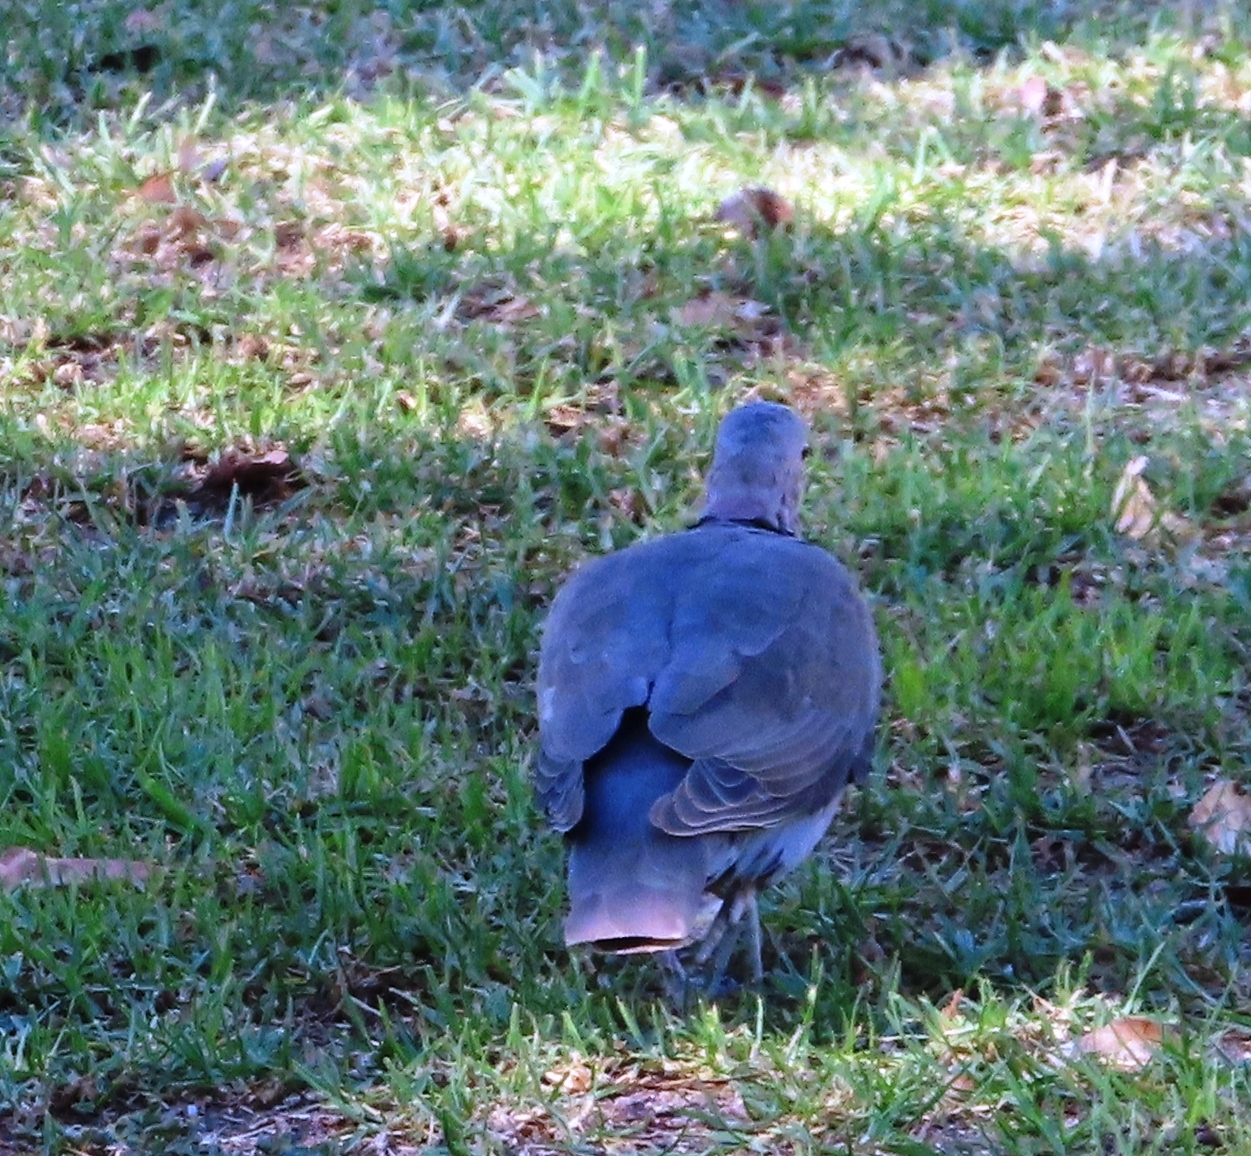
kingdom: Animalia
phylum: Chordata
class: Aves
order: Columbiformes
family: Columbidae
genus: Streptopelia
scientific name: Streptopelia semitorquata
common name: Red-eyed dove
